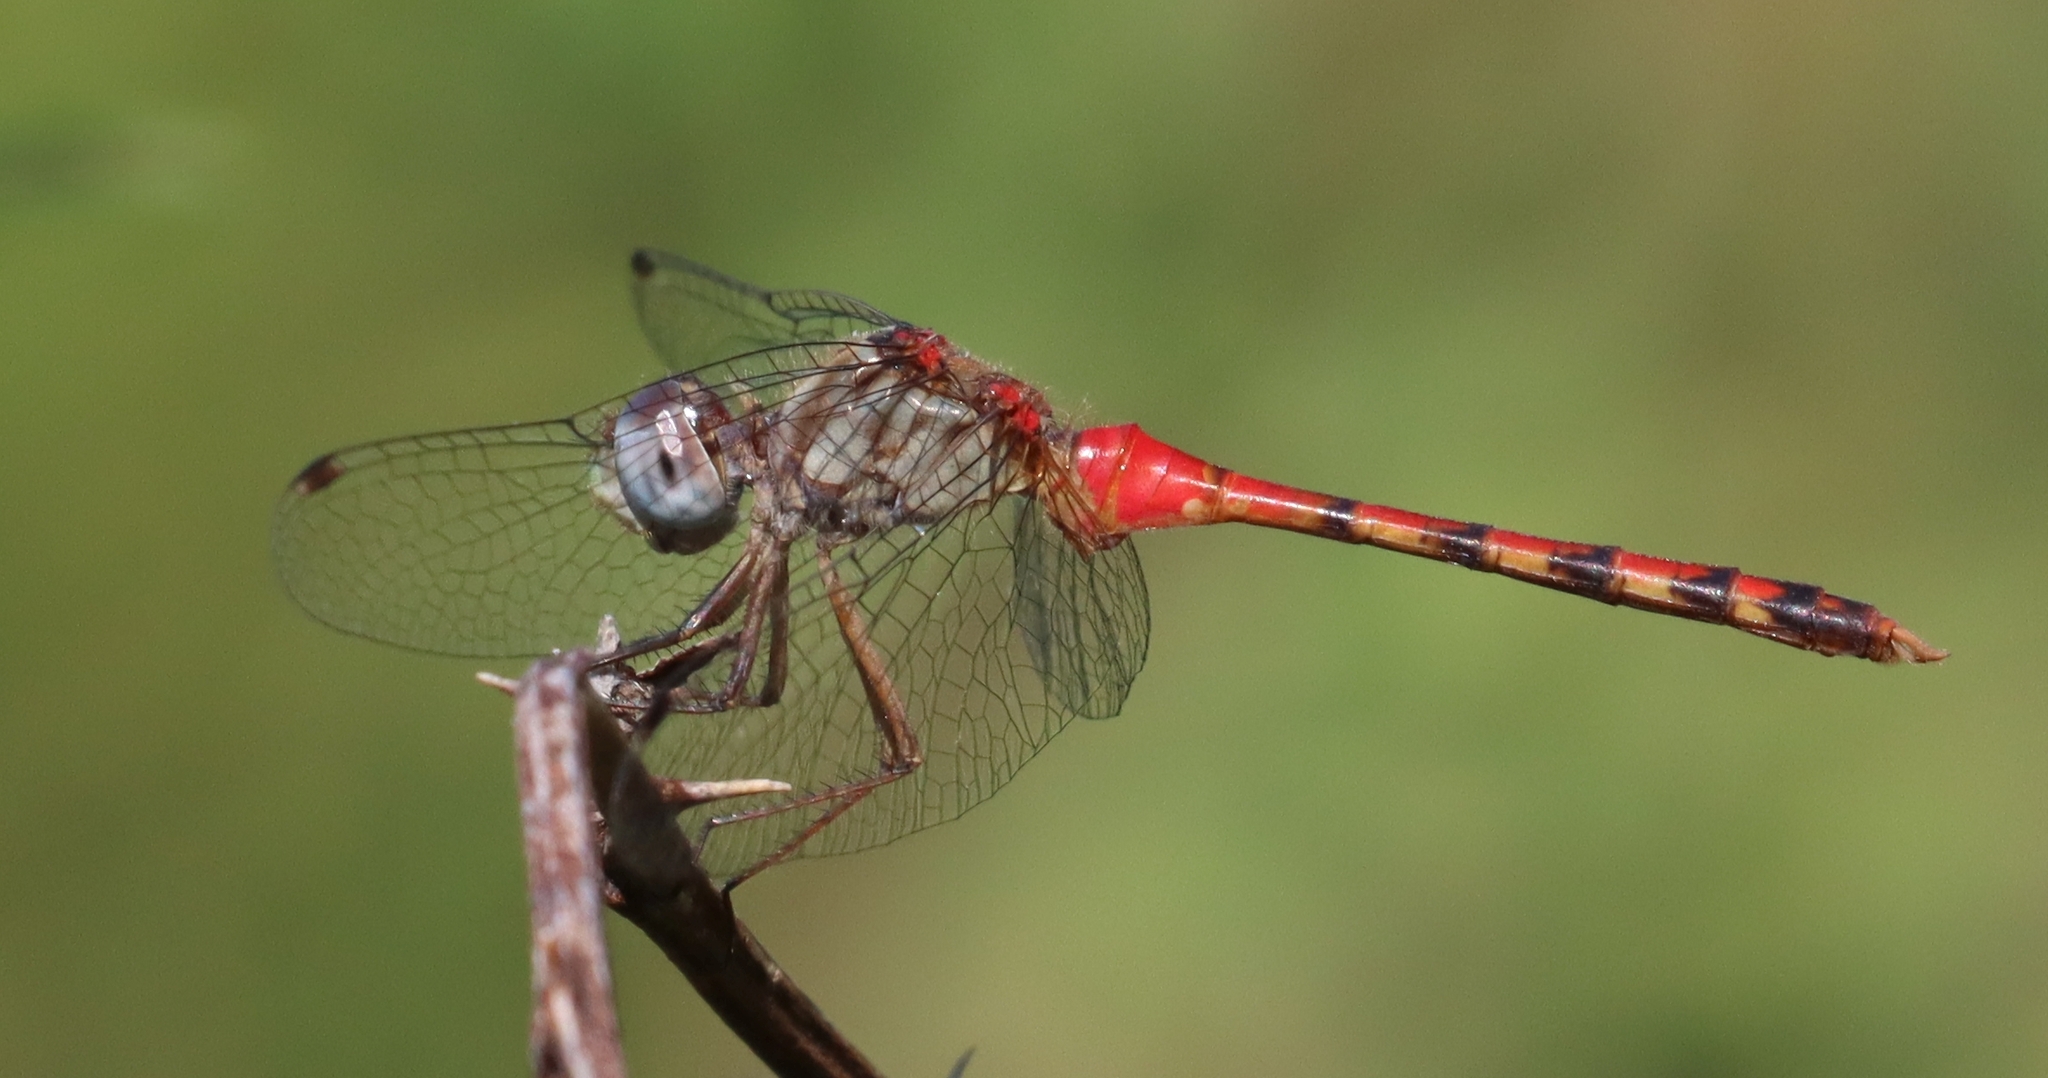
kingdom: Animalia
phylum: Arthropoda
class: Insecta
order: Odonata
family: Libellulidae
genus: Sympetrum
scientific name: Sympetrum ambiguum
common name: Blue-faced meadowhawk
